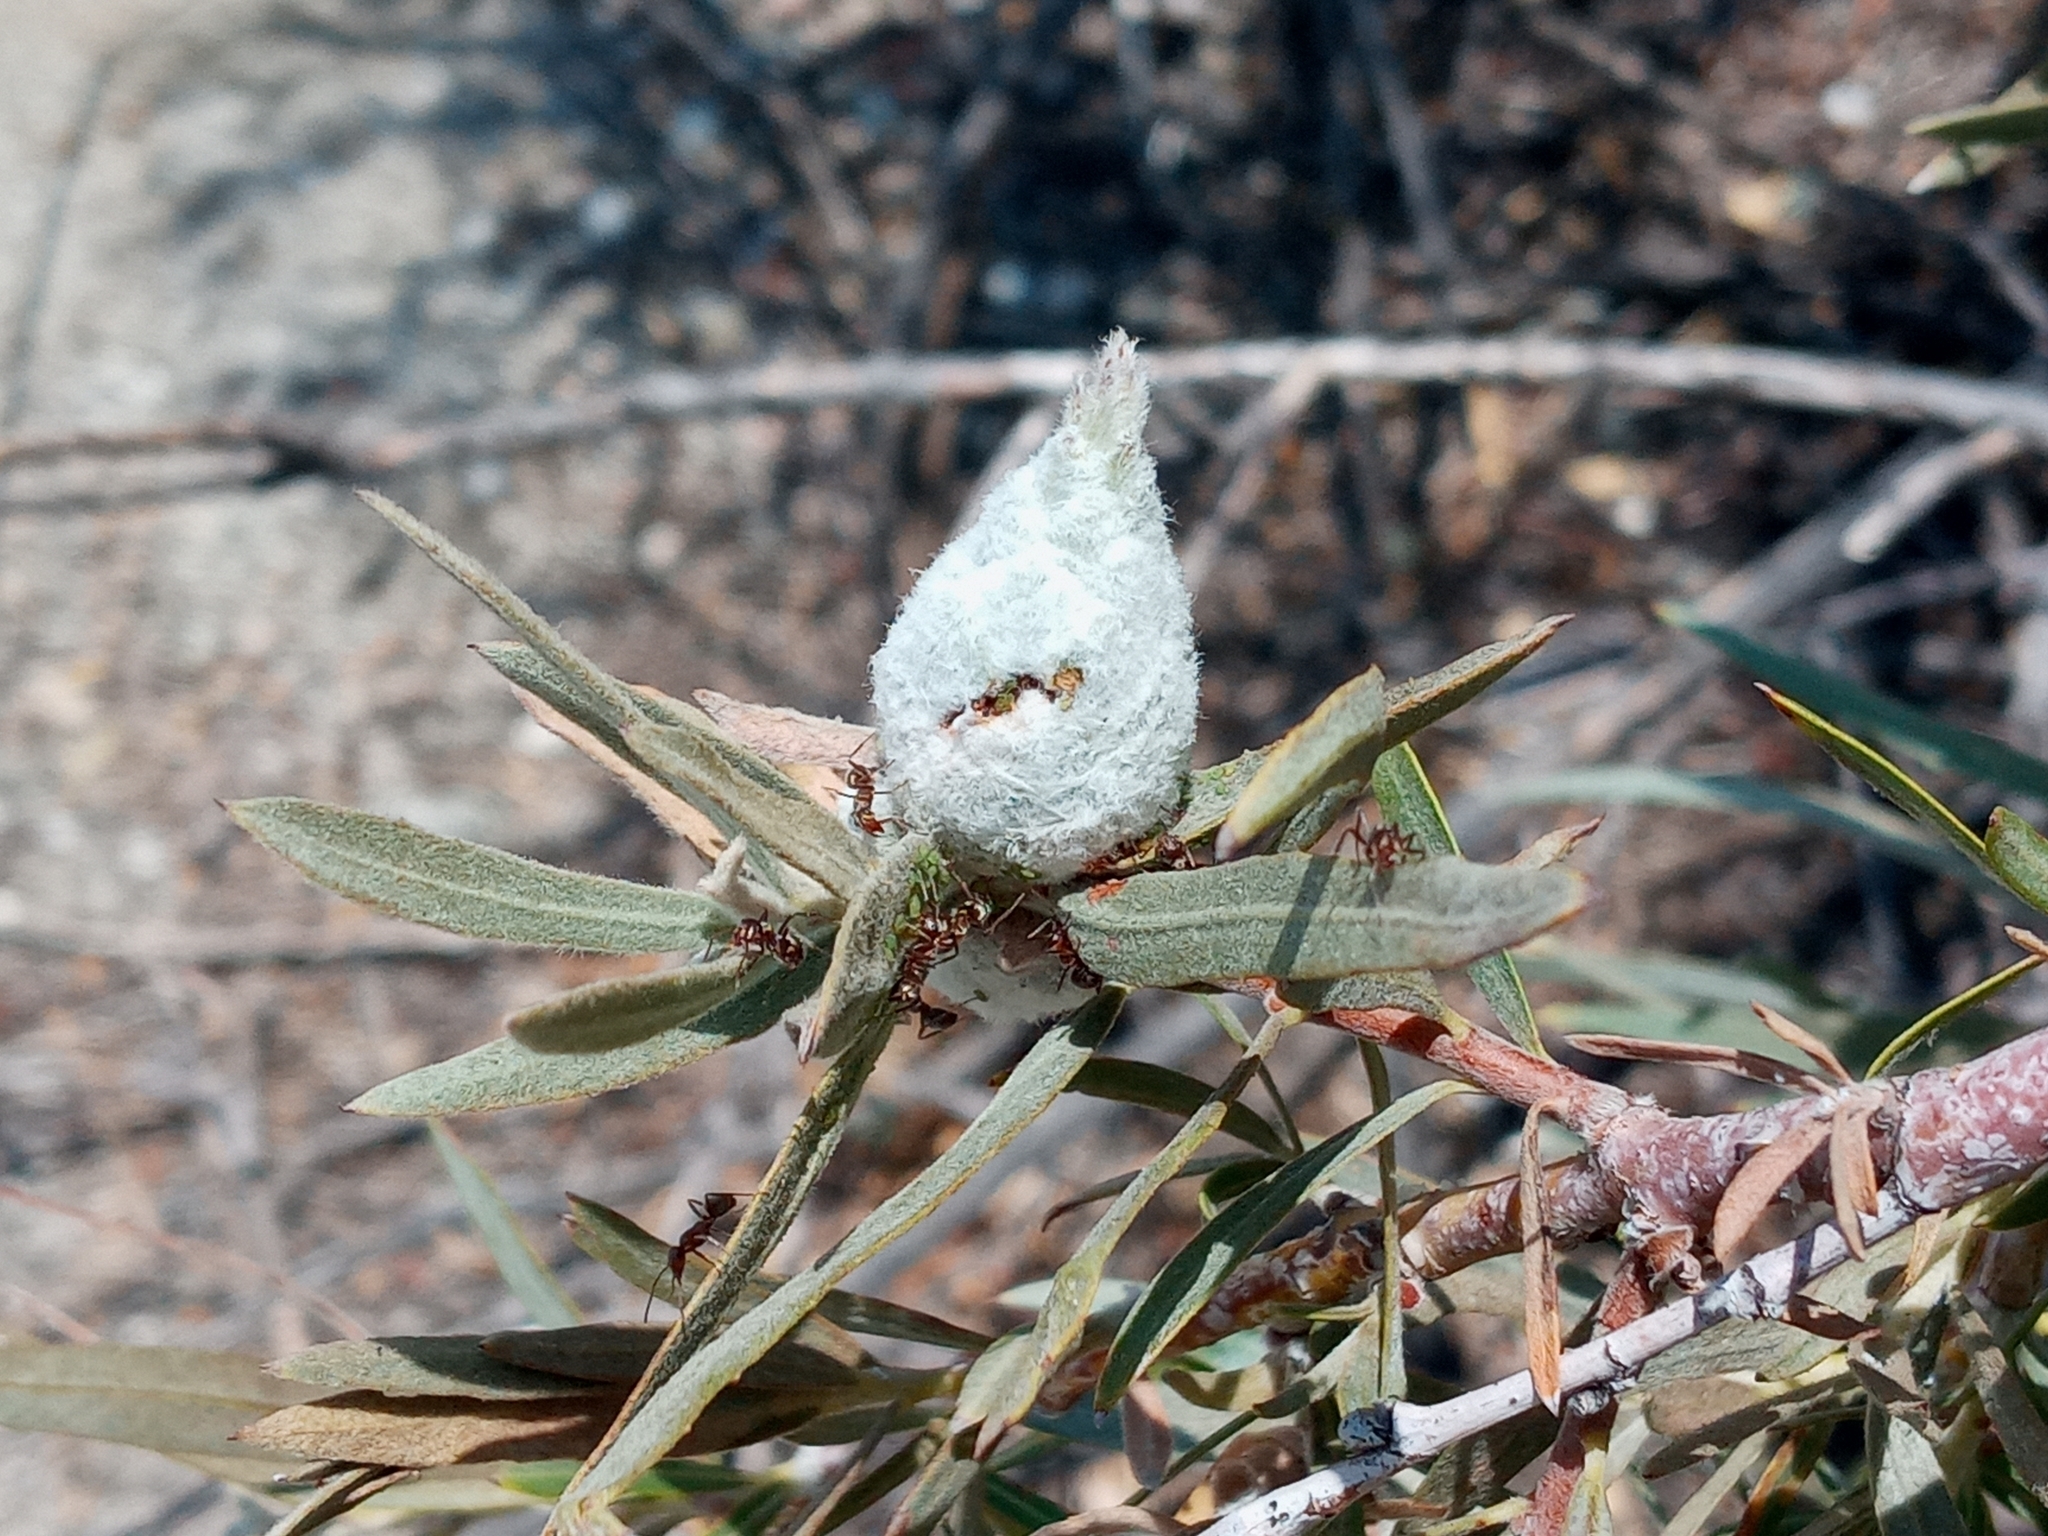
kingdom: Animalia
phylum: Arthropoda
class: Insecta
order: Diptera
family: Cecidomyiidae
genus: Rabdophaga
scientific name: Rabdophaga strobiloides
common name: Willow pinecone gall midge
